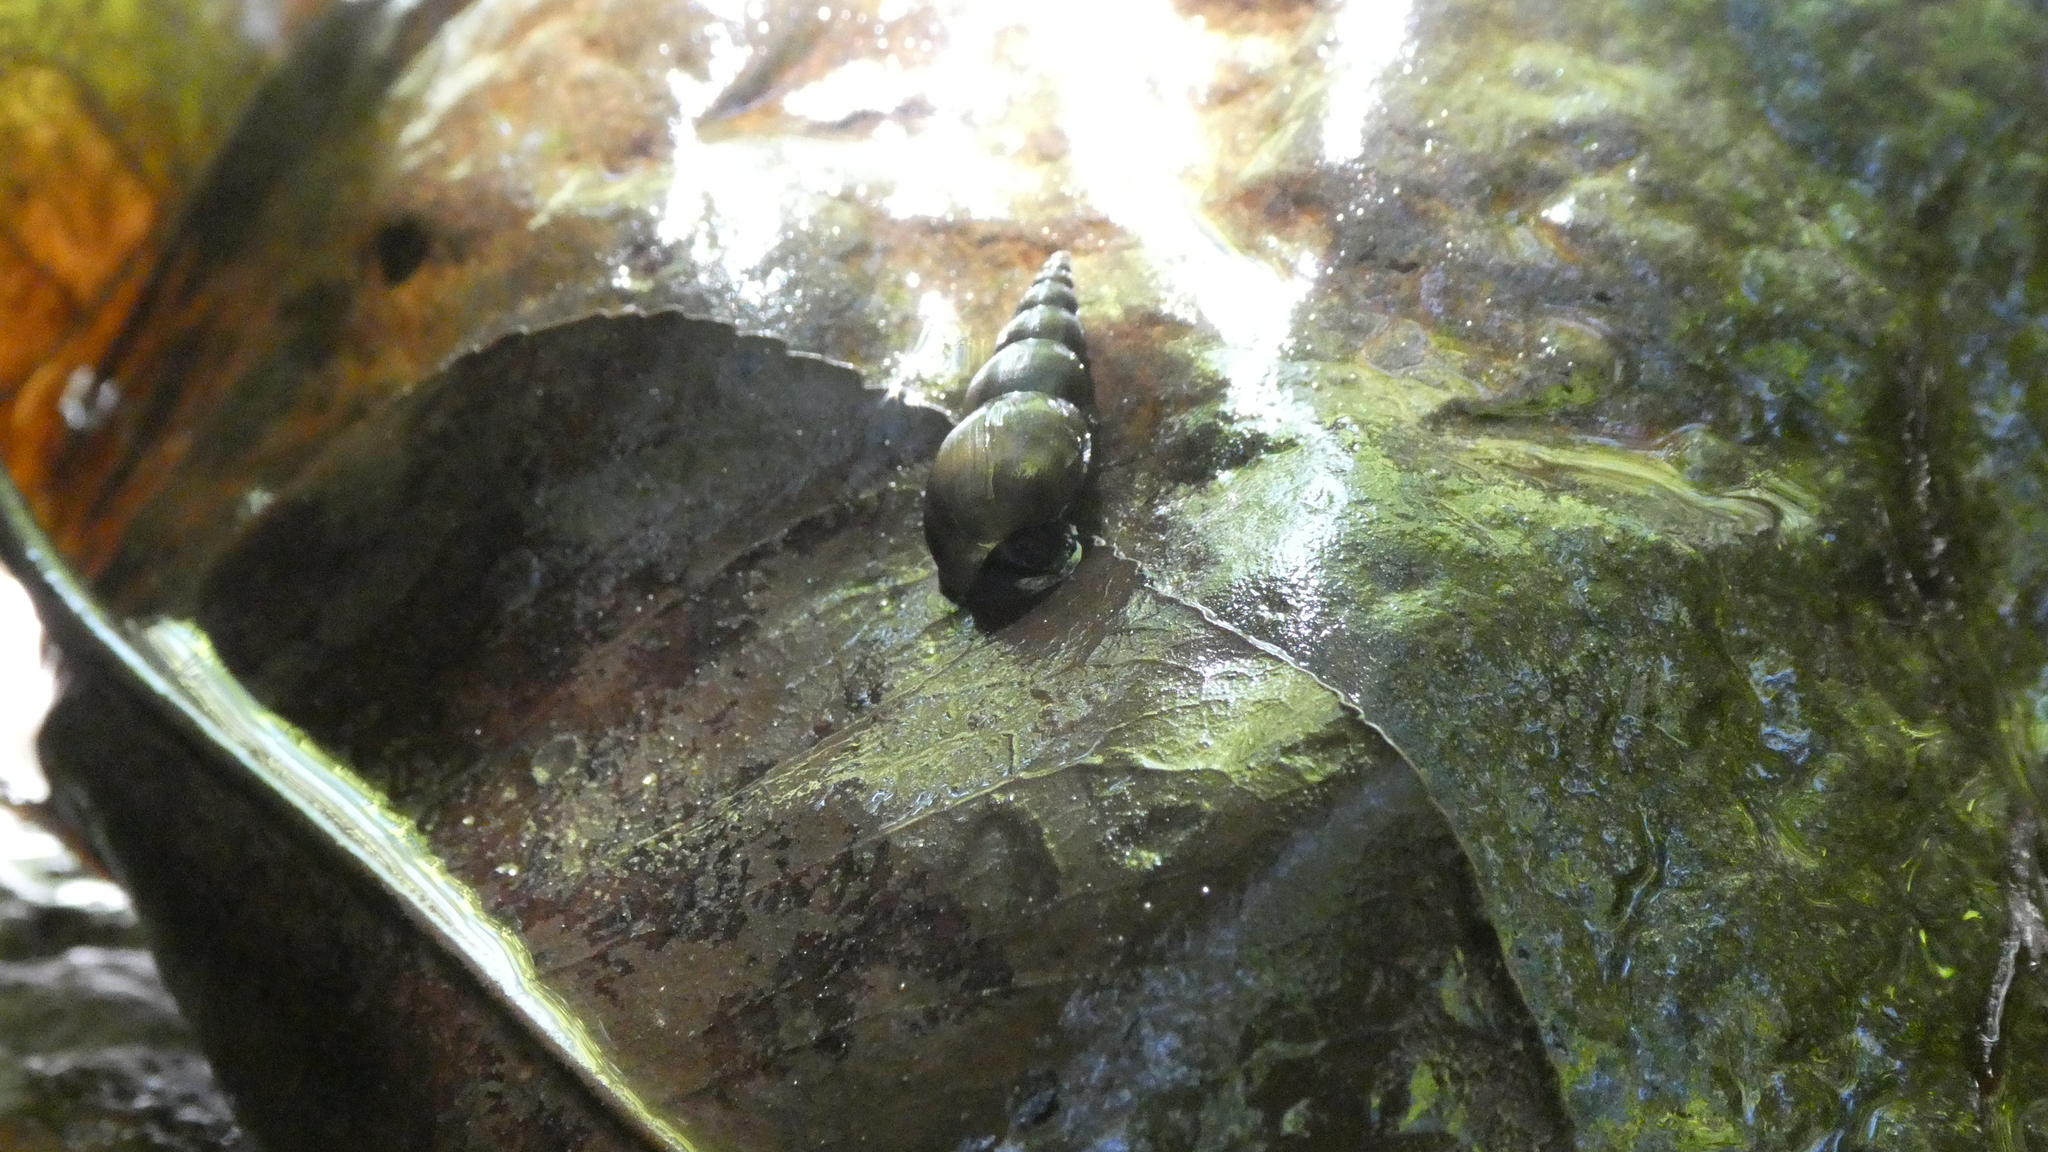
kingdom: Animalia
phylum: Mollusca
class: Gastropoda
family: Semisulcospiridae
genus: Juga
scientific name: Juga nigrina
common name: Black juga
